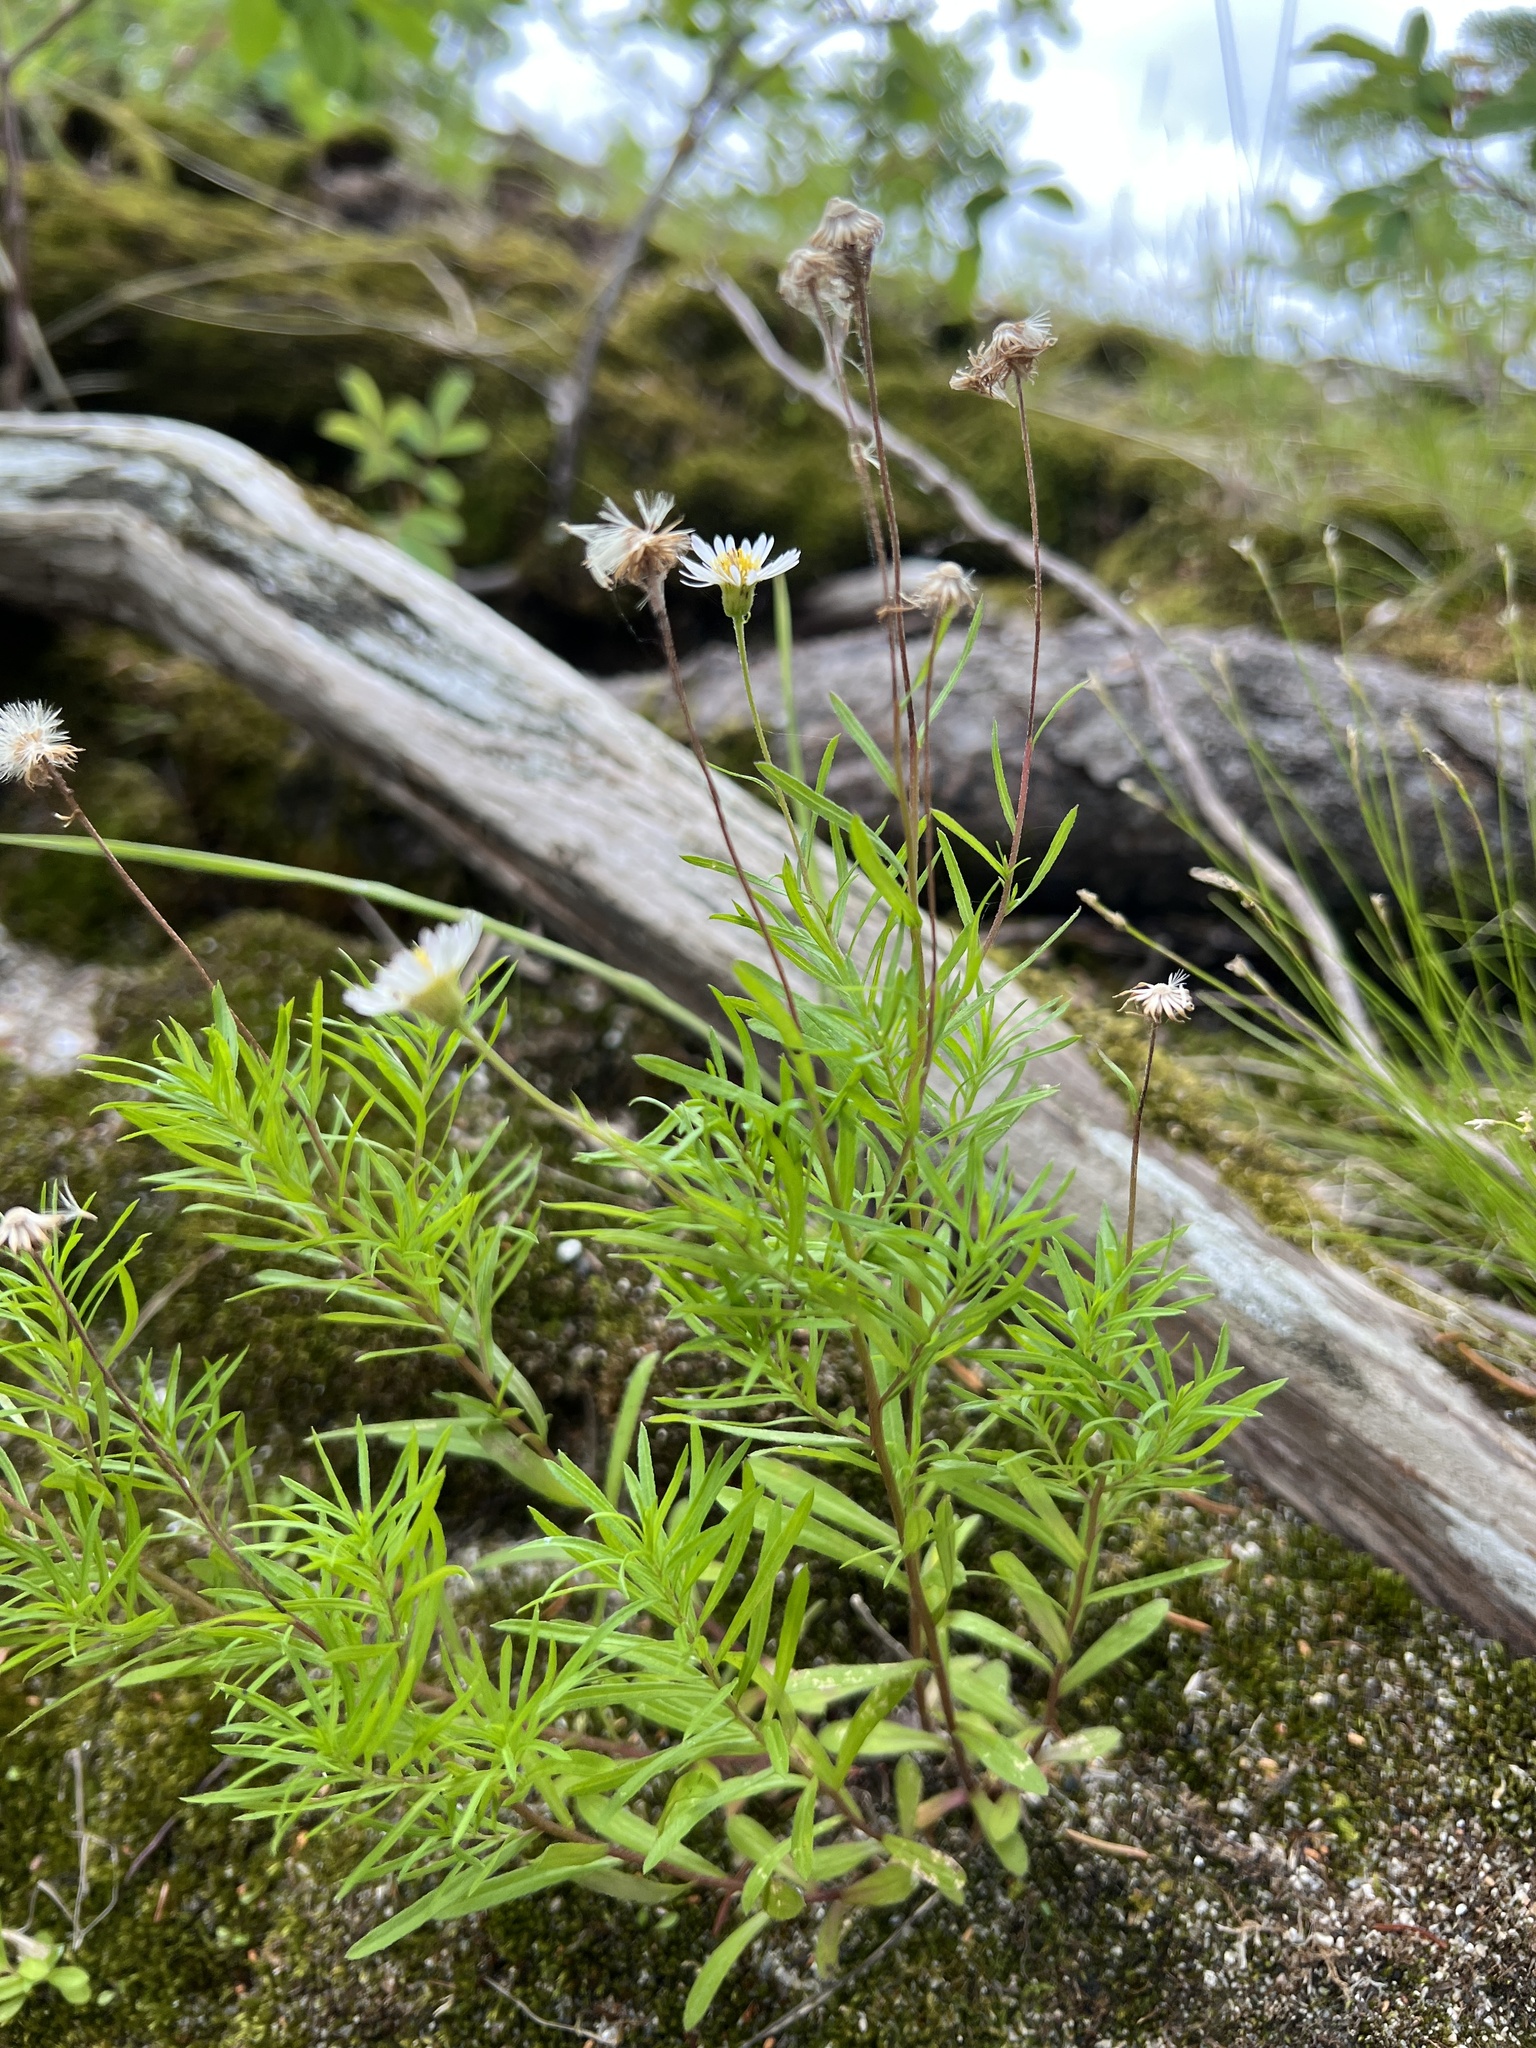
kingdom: Plantae
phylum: Tracheophyta
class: Magnoliopsida
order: Asterales
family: Asteraceae
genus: Erigeron
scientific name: Erigeron hyssopifolius
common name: Daisy fleabane
